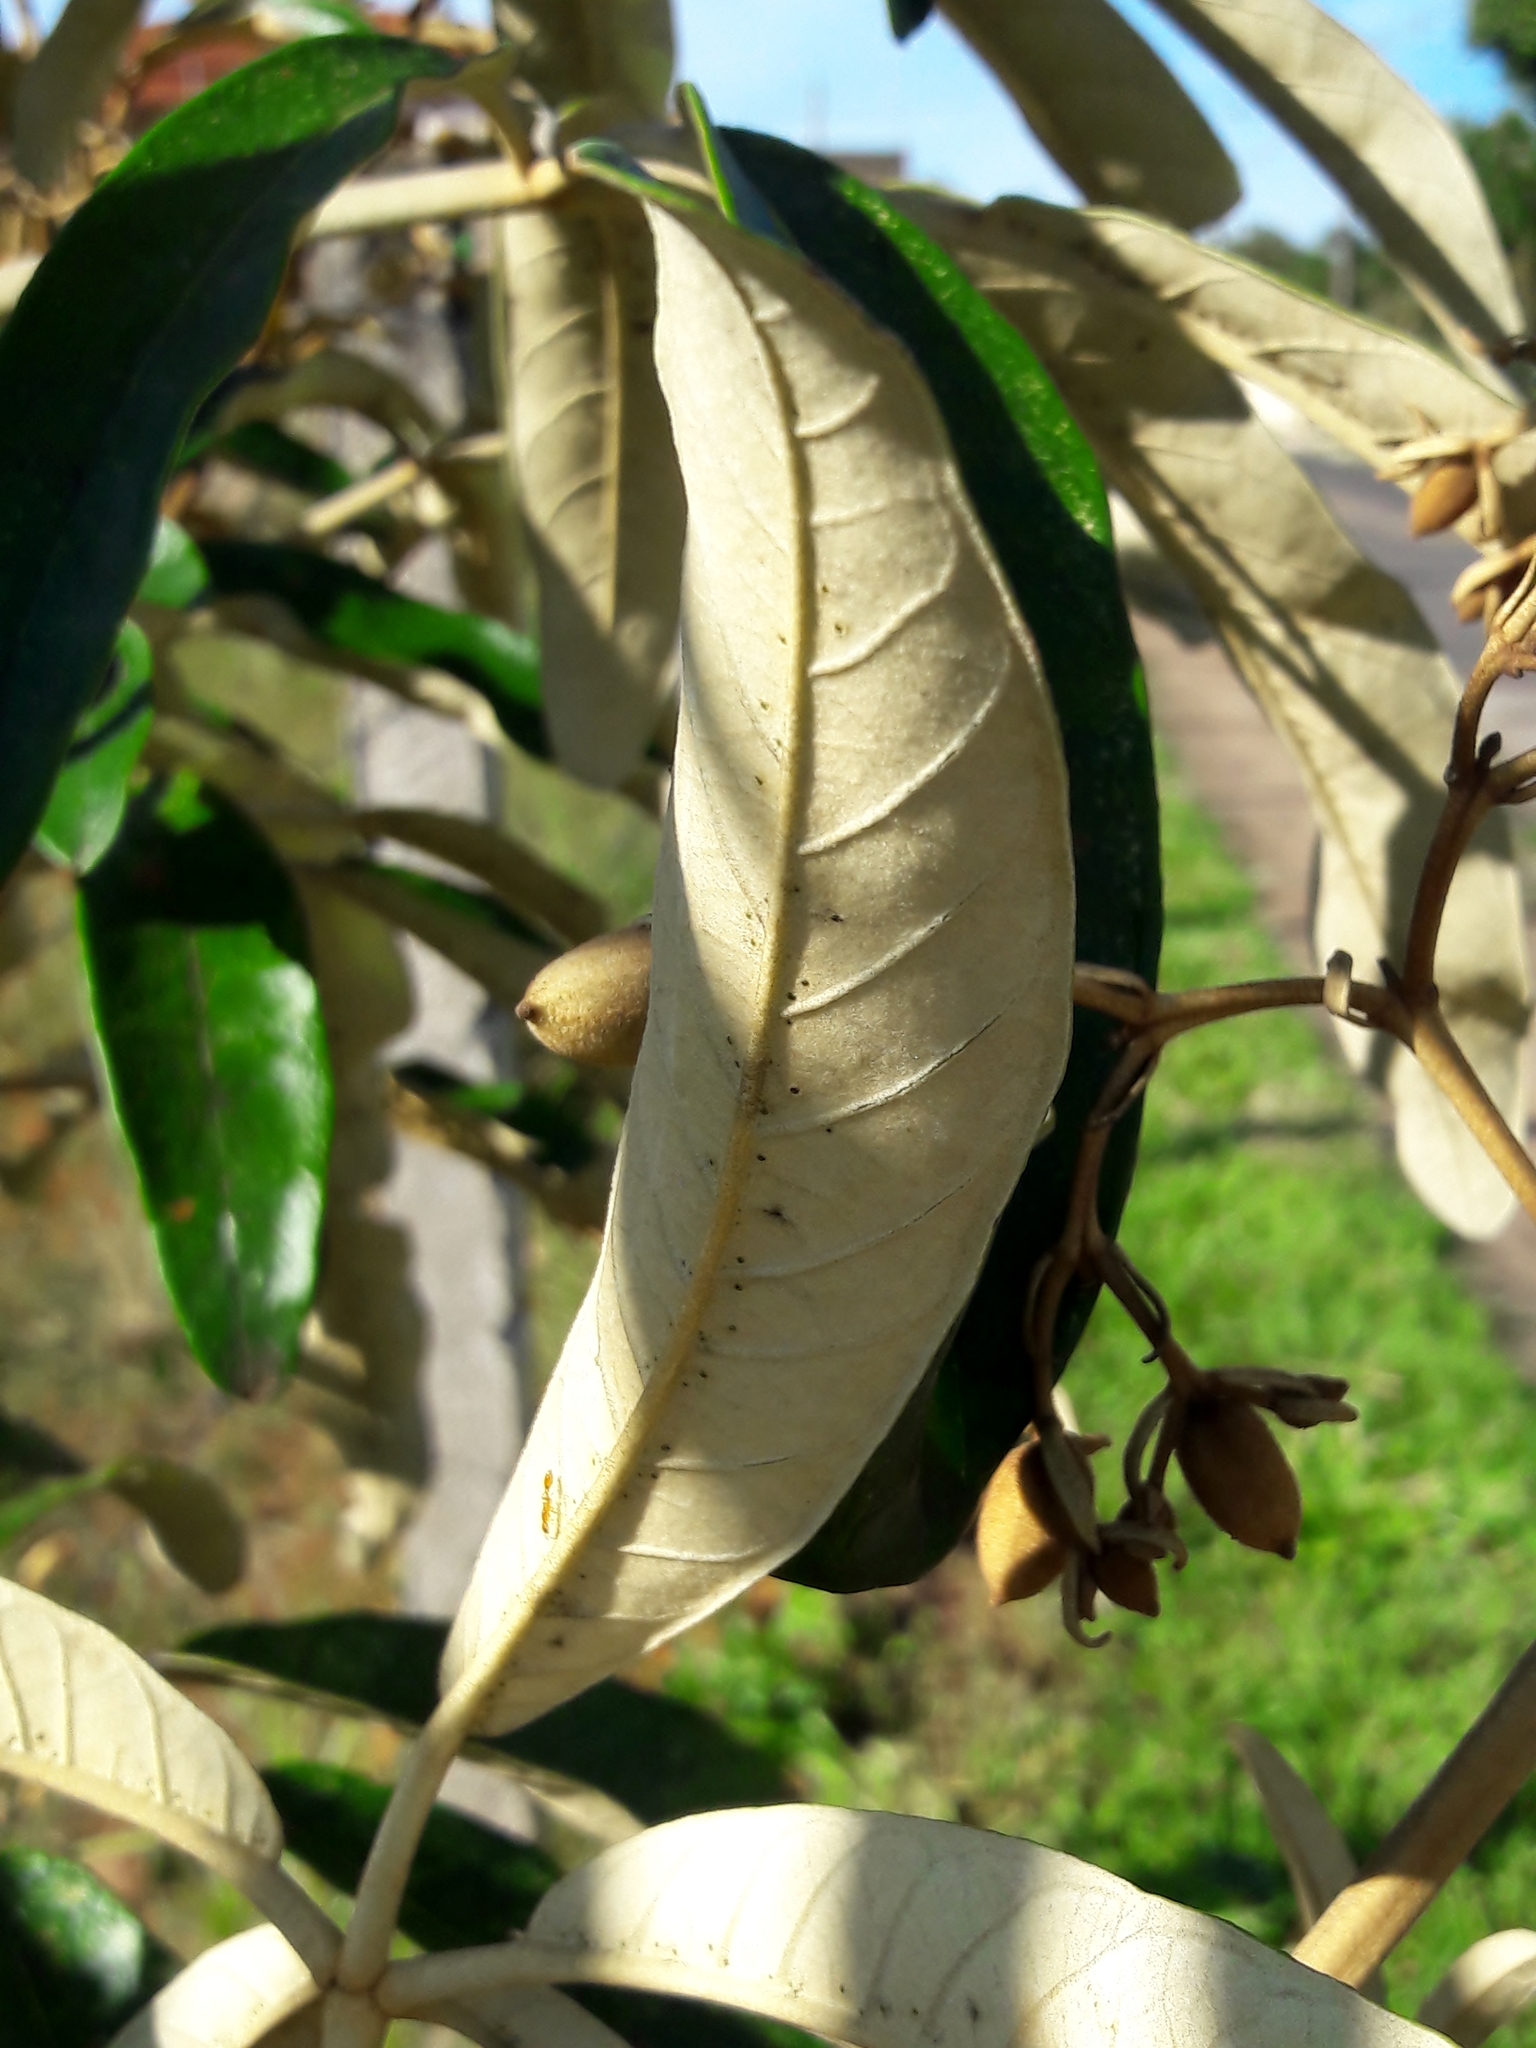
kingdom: Plantae
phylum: Tracheophyta
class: Magnoliopsida
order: Lamiales
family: Bignoniaceae
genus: Zeyheria
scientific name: Zeyheria montana
